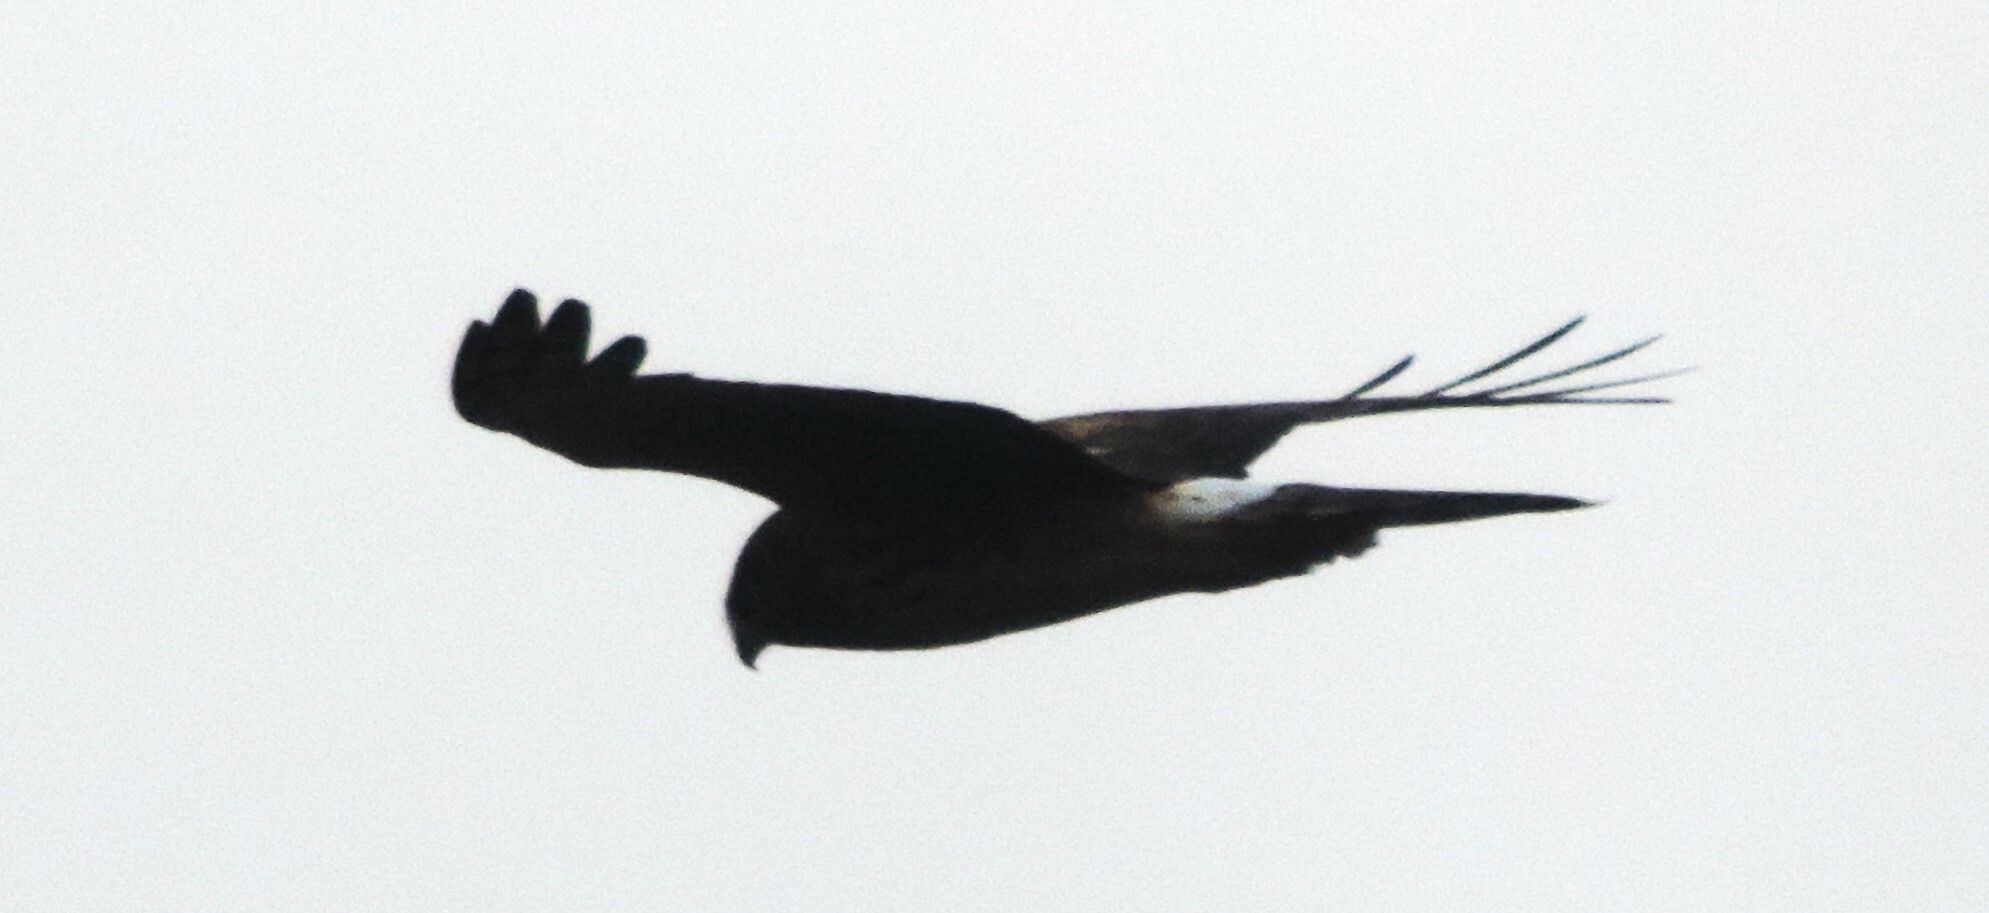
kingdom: Animalia
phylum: Chordata
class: Aves
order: Accipitriformes
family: Accipitridae
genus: Circus
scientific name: Circus cyaneus
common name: Hen harrier
